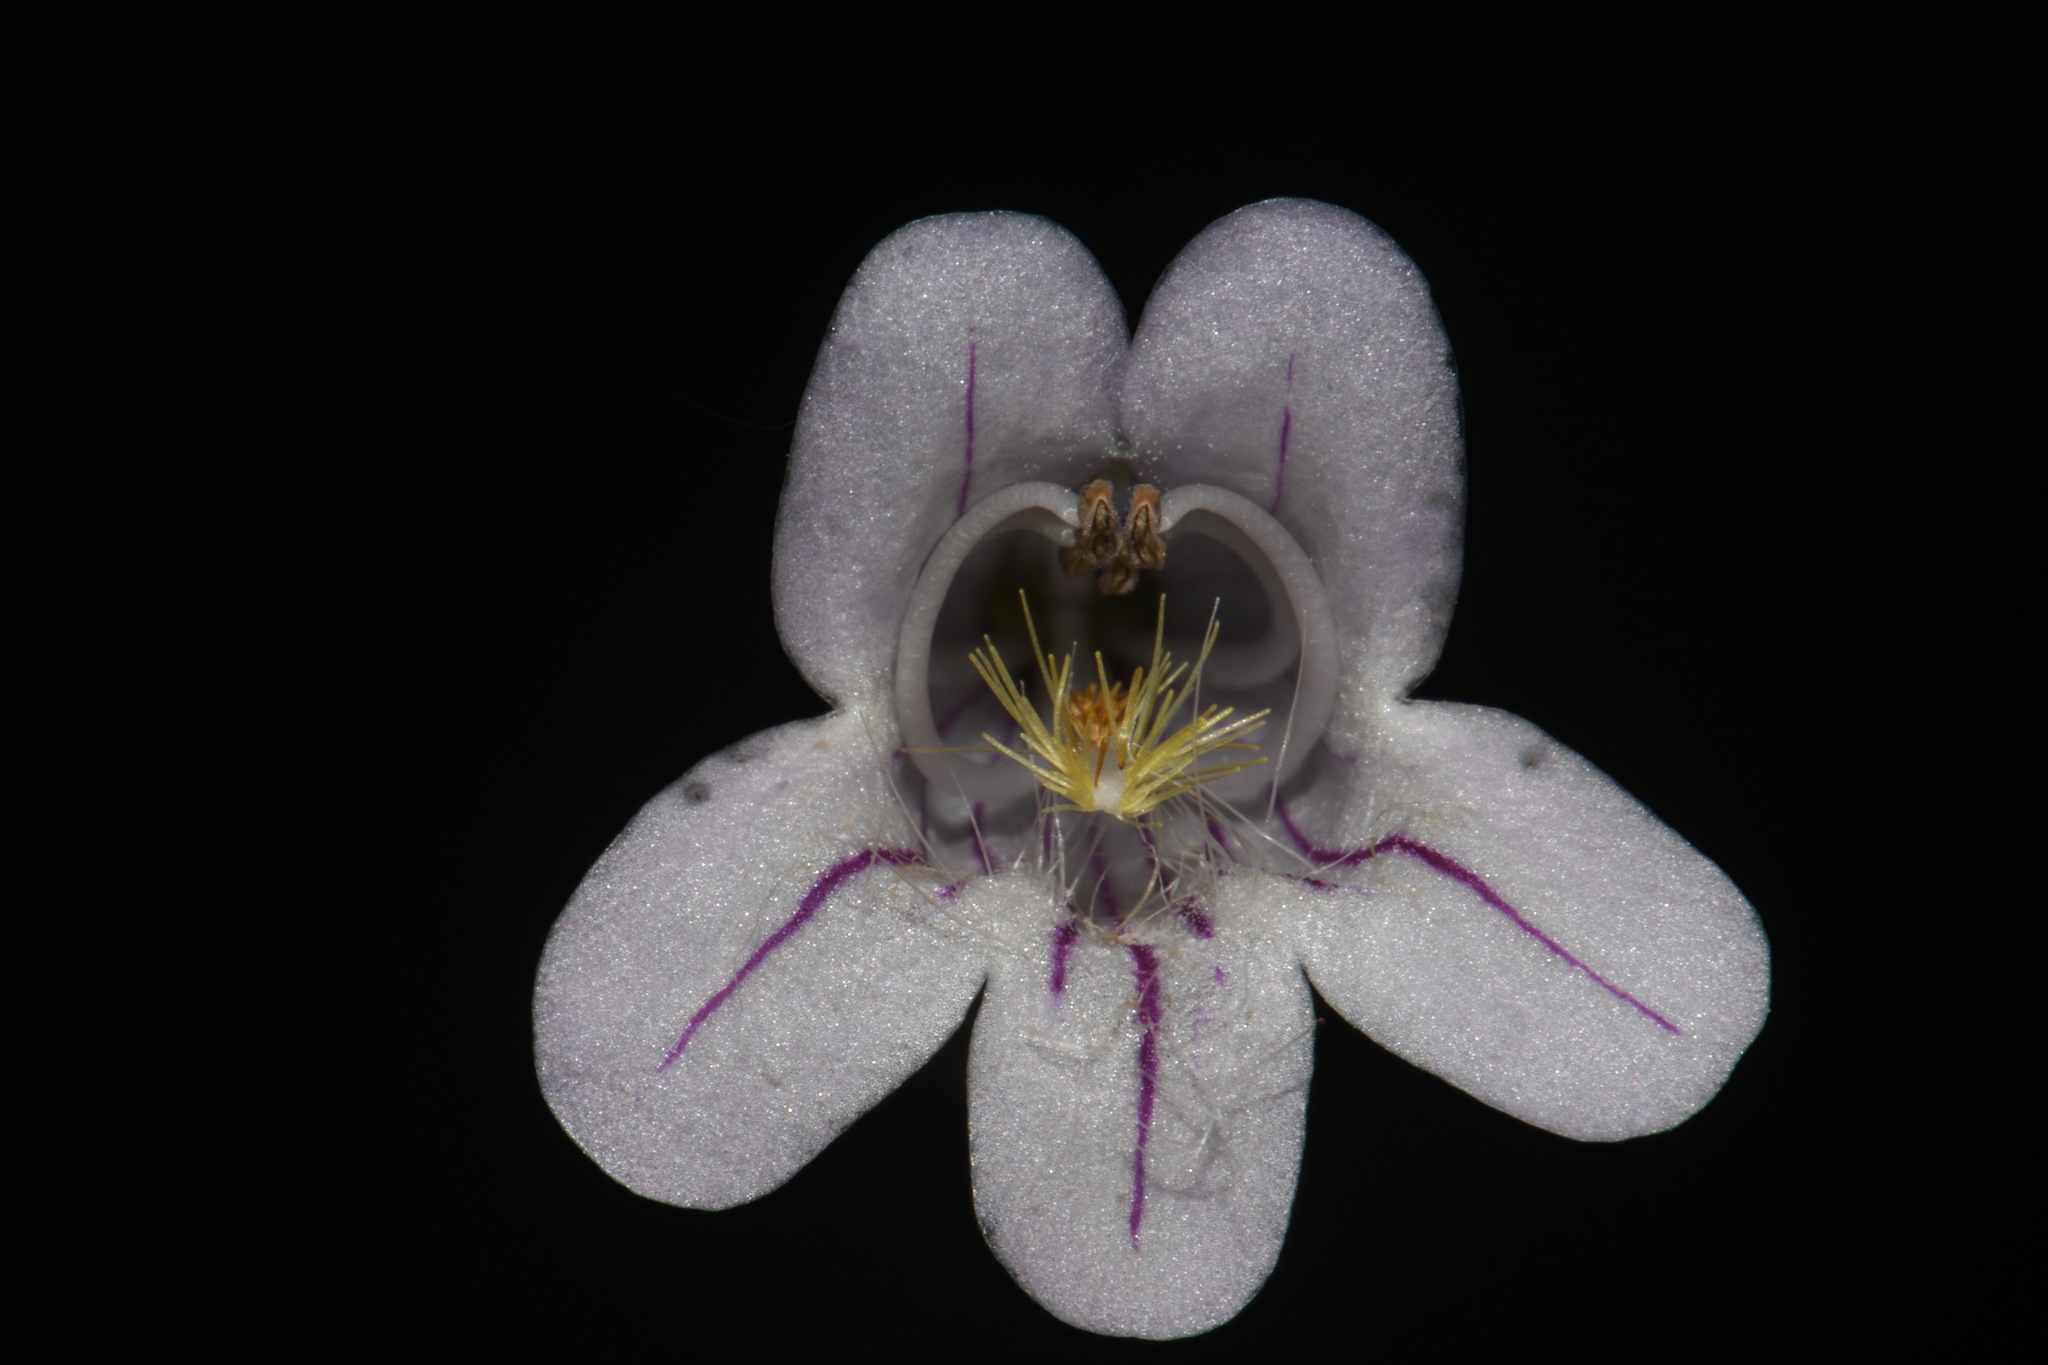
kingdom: Plantae
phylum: Tracheophyta
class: Magnoliopsida
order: Lamiales
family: Plantaginaceae
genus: Penstemon
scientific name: Penstemon laevigatus
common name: Eastern beardtongue
